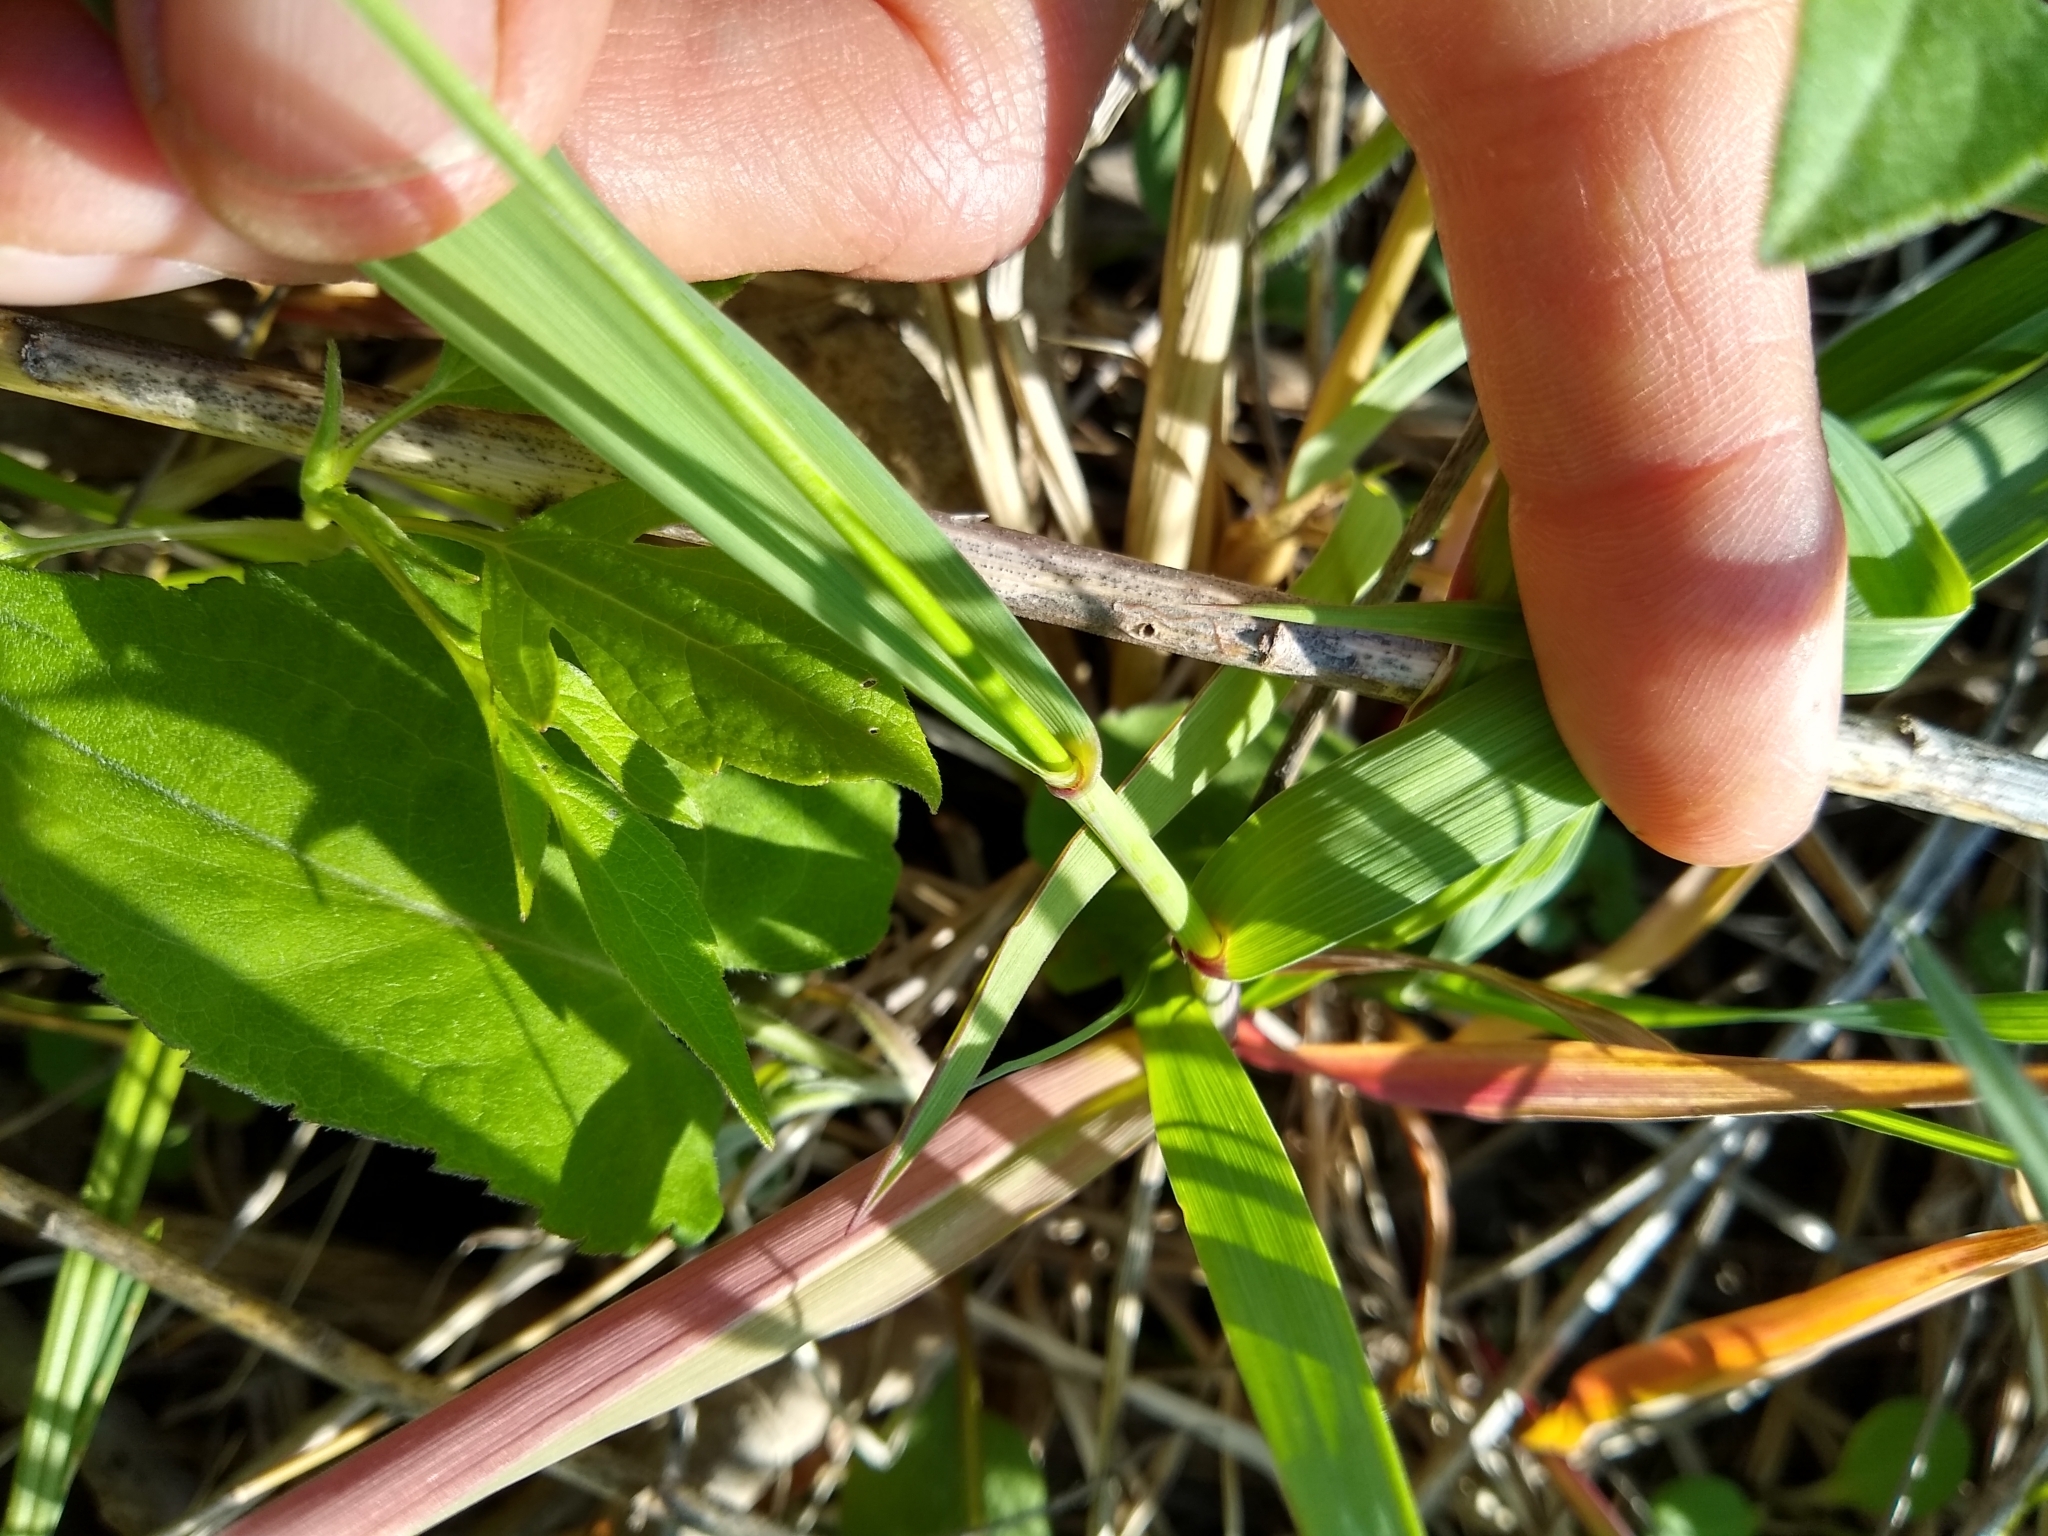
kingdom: Plantae
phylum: Tracheophyta
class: Liliopsida
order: Poales
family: Poaceae
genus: Elymus
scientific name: Elymus canadensis
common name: Canada wild rye
